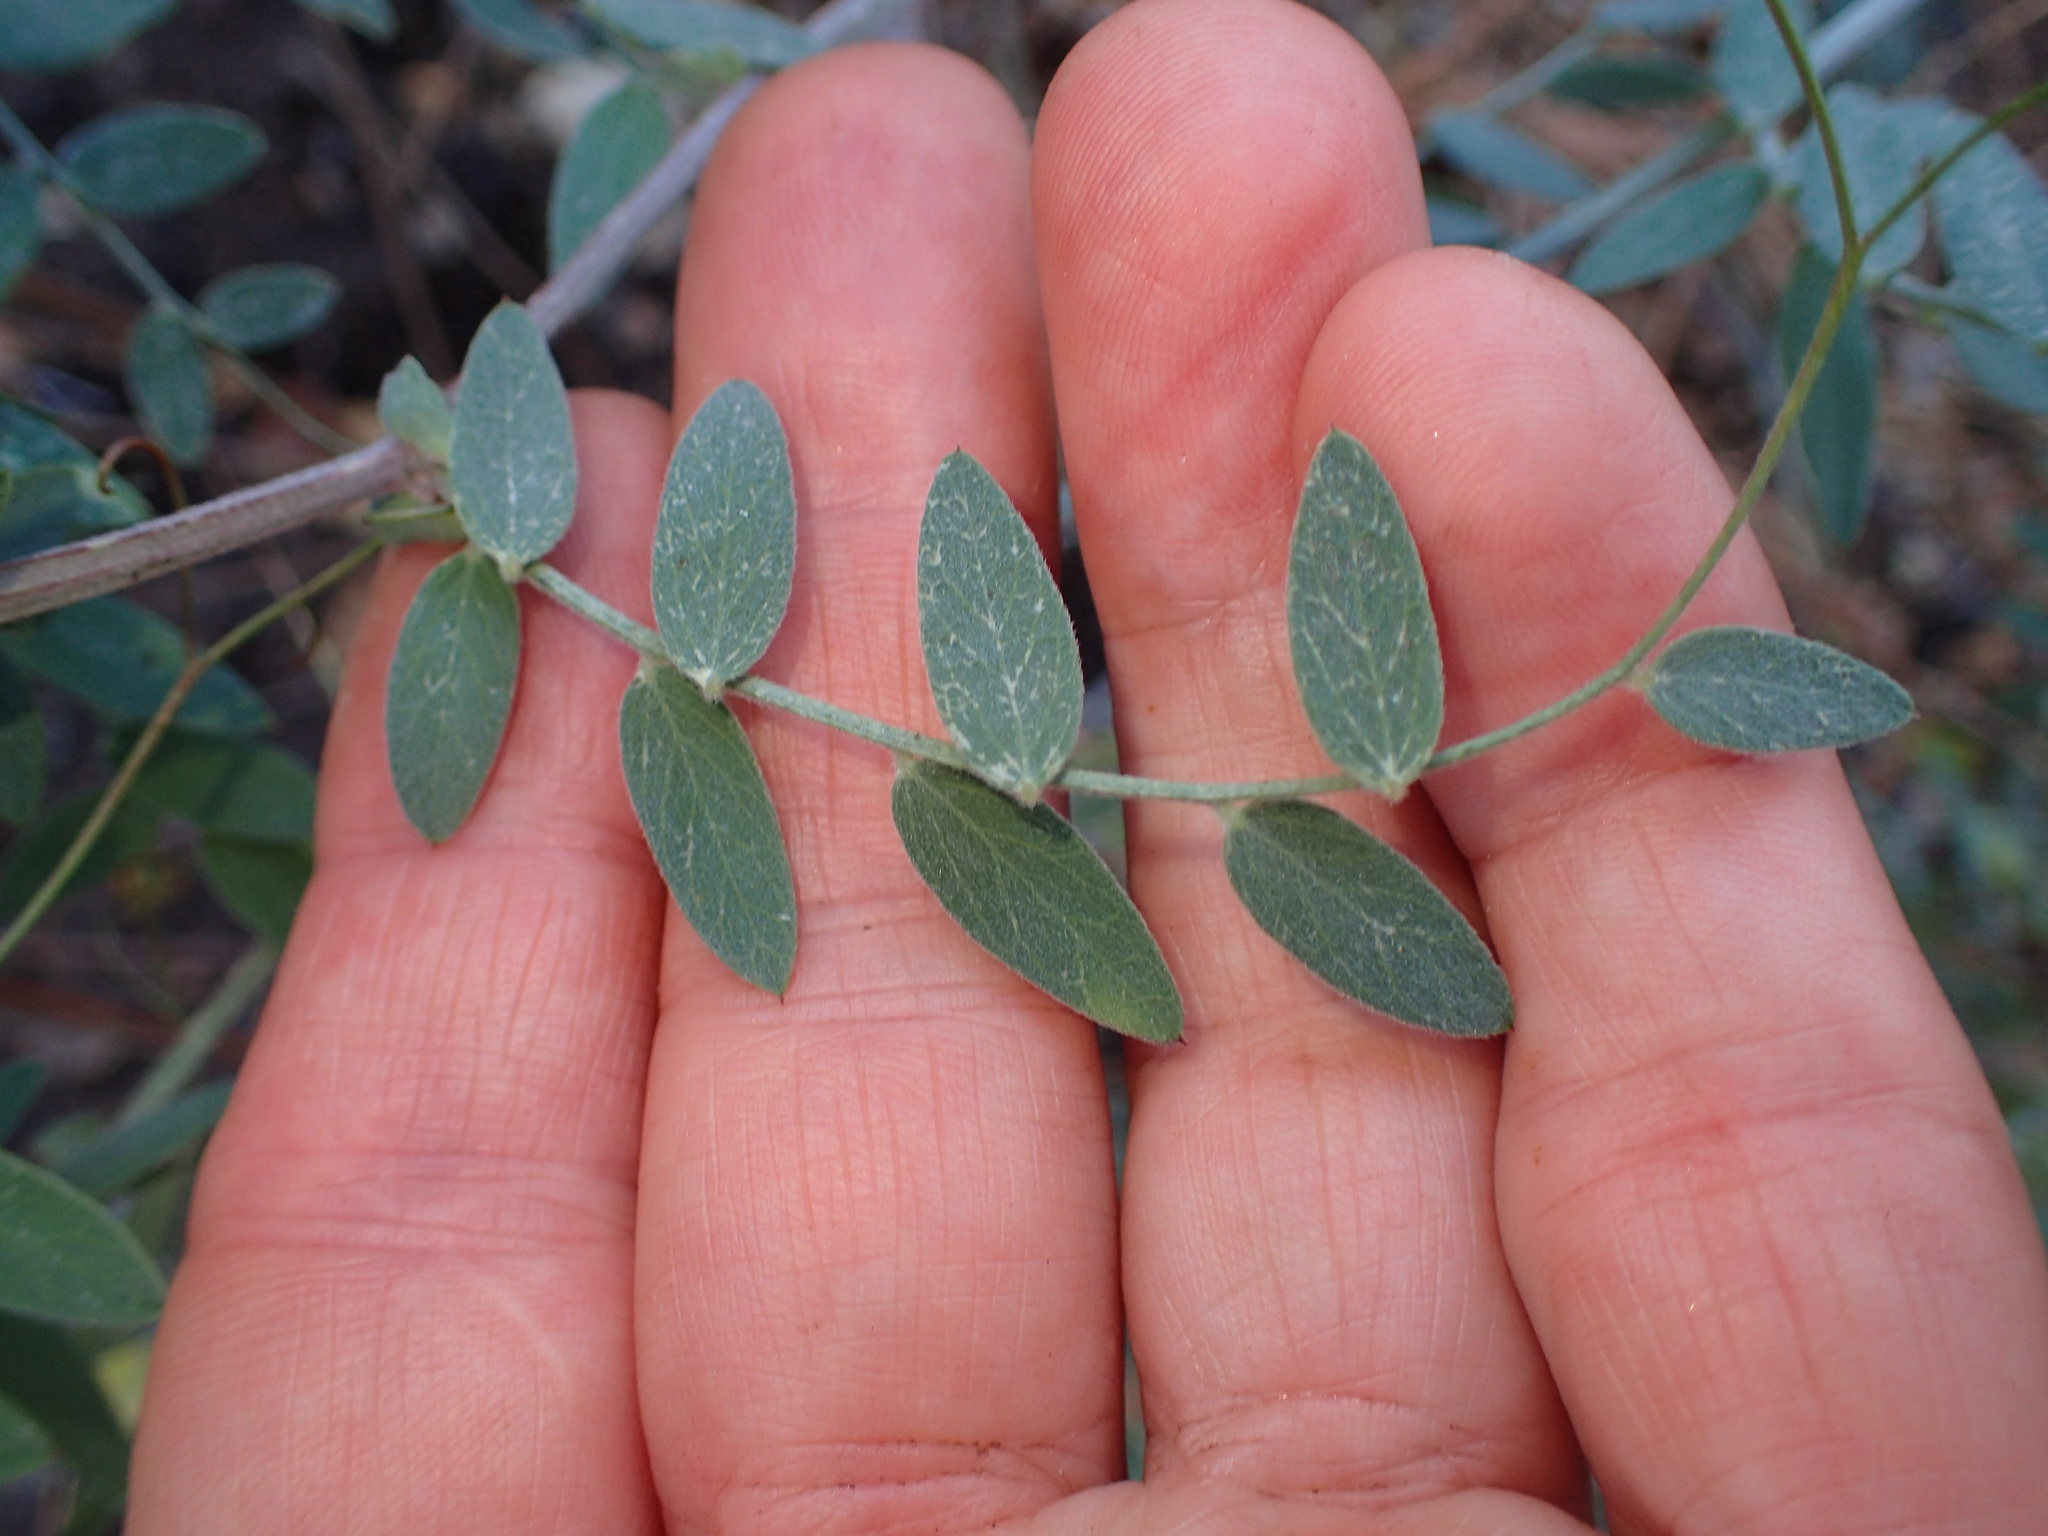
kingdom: Plantae
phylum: Tracheophyta
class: Magnoliopsida
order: Fabales
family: Fabaceae
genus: Lathyrus
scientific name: Lathyrus vestitus
